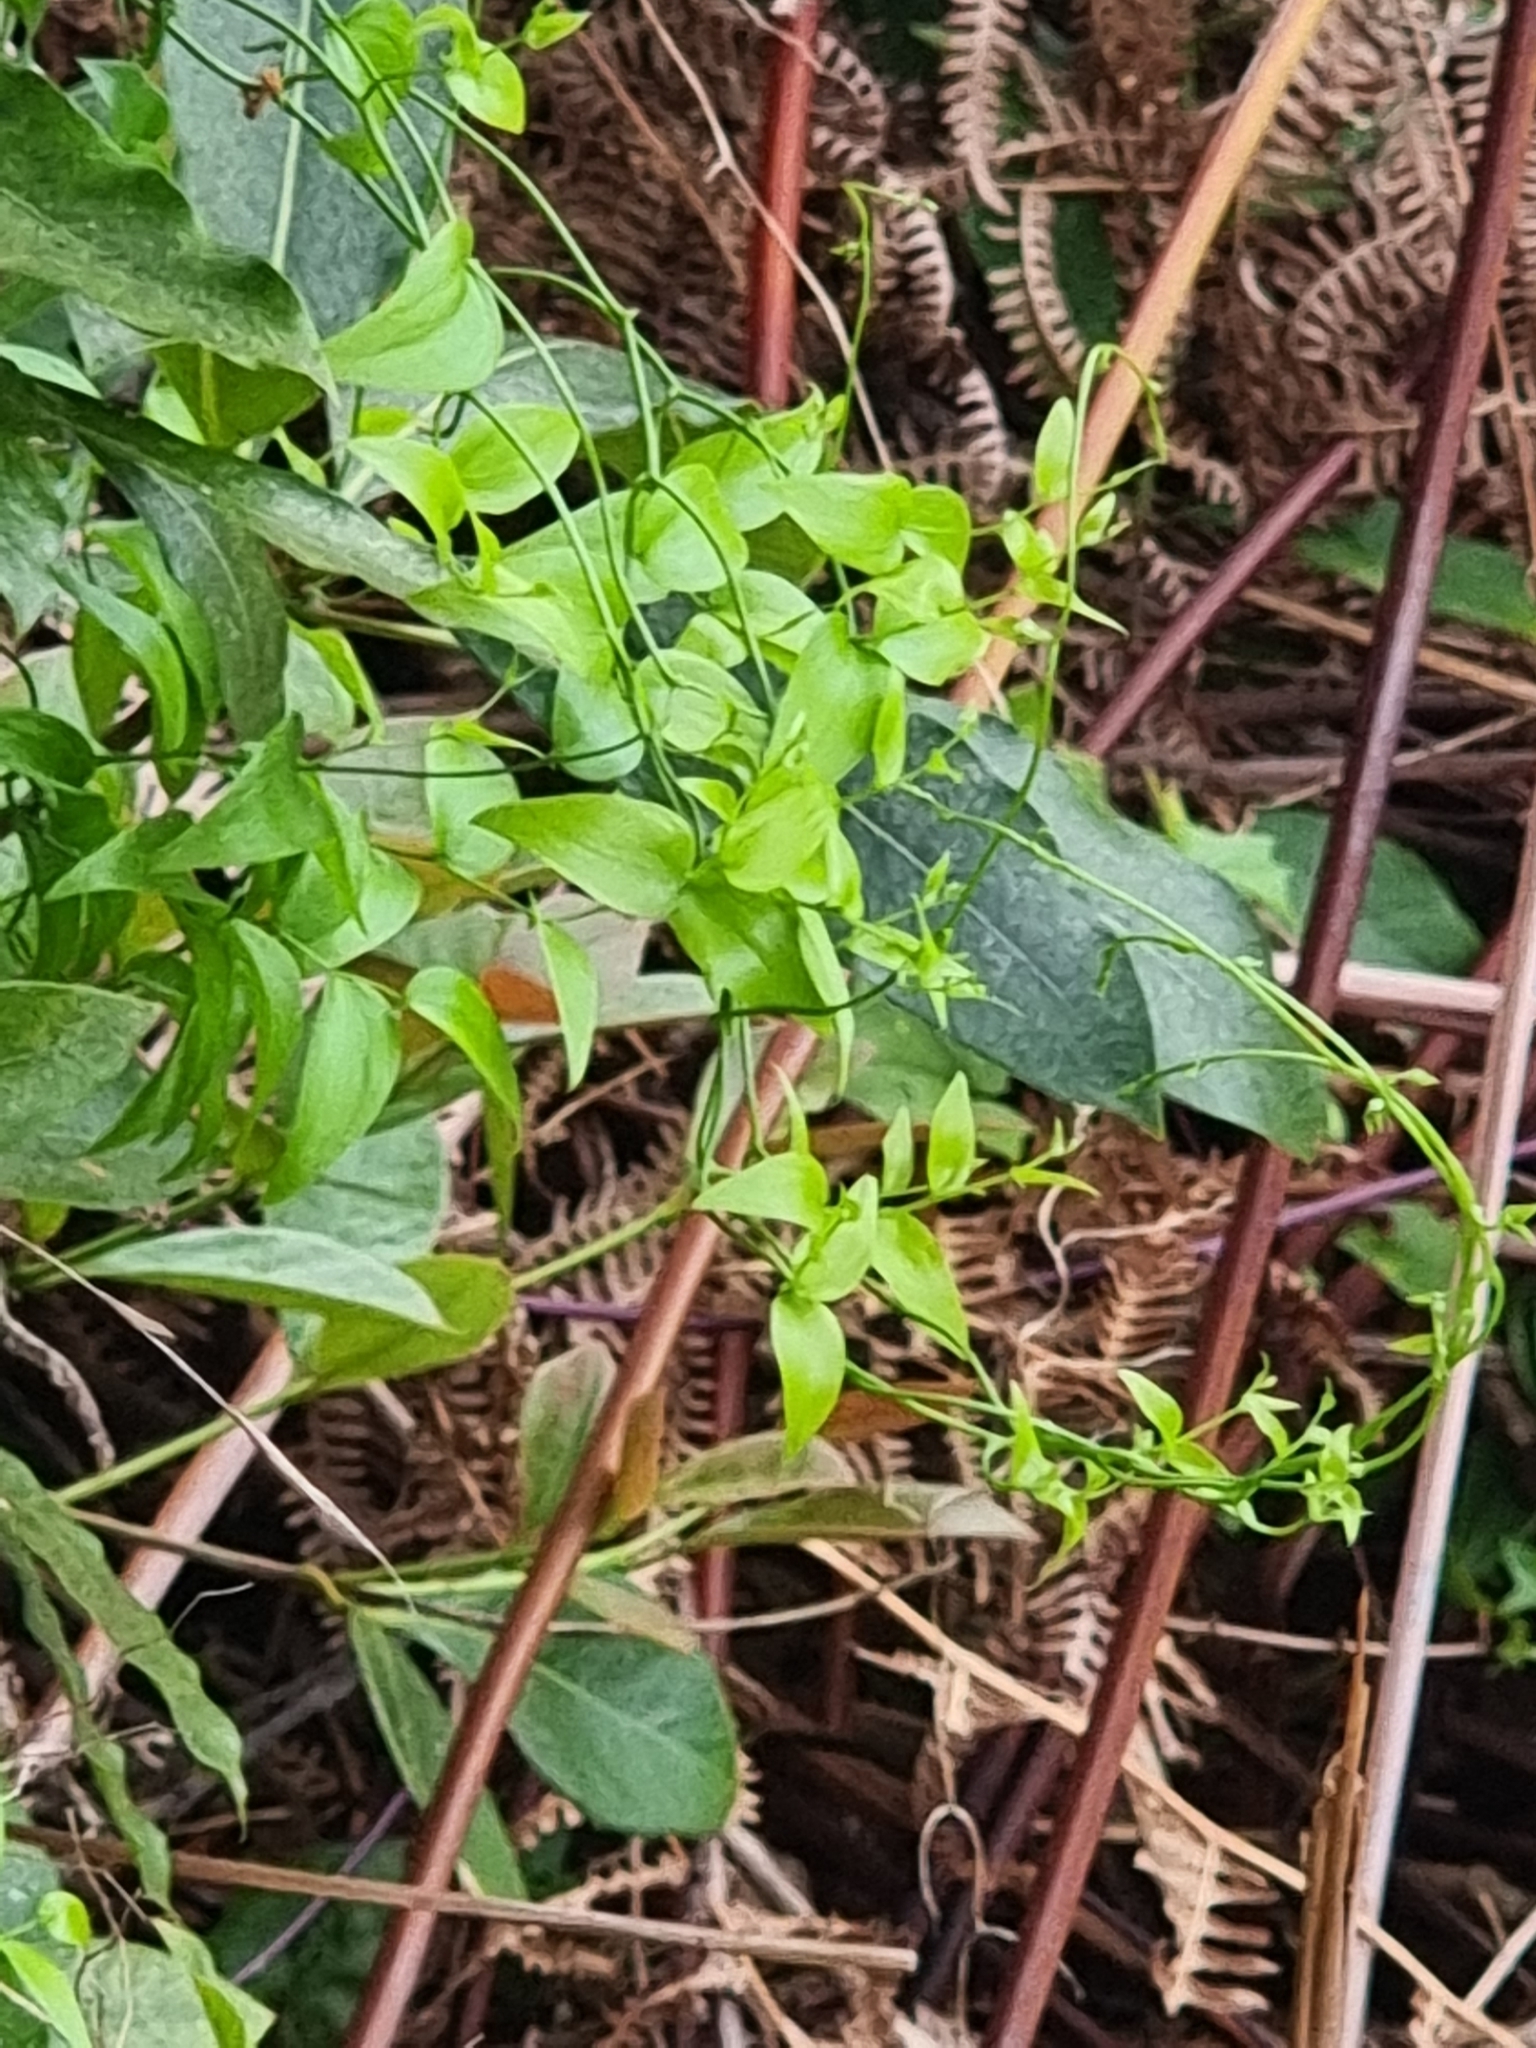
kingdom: Plantae
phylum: Tracheophyta
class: Liliopsida
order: Asparagales
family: Asparagaceae
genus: Asparagus
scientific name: Asparagus asparagoides
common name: African asparagus fern
